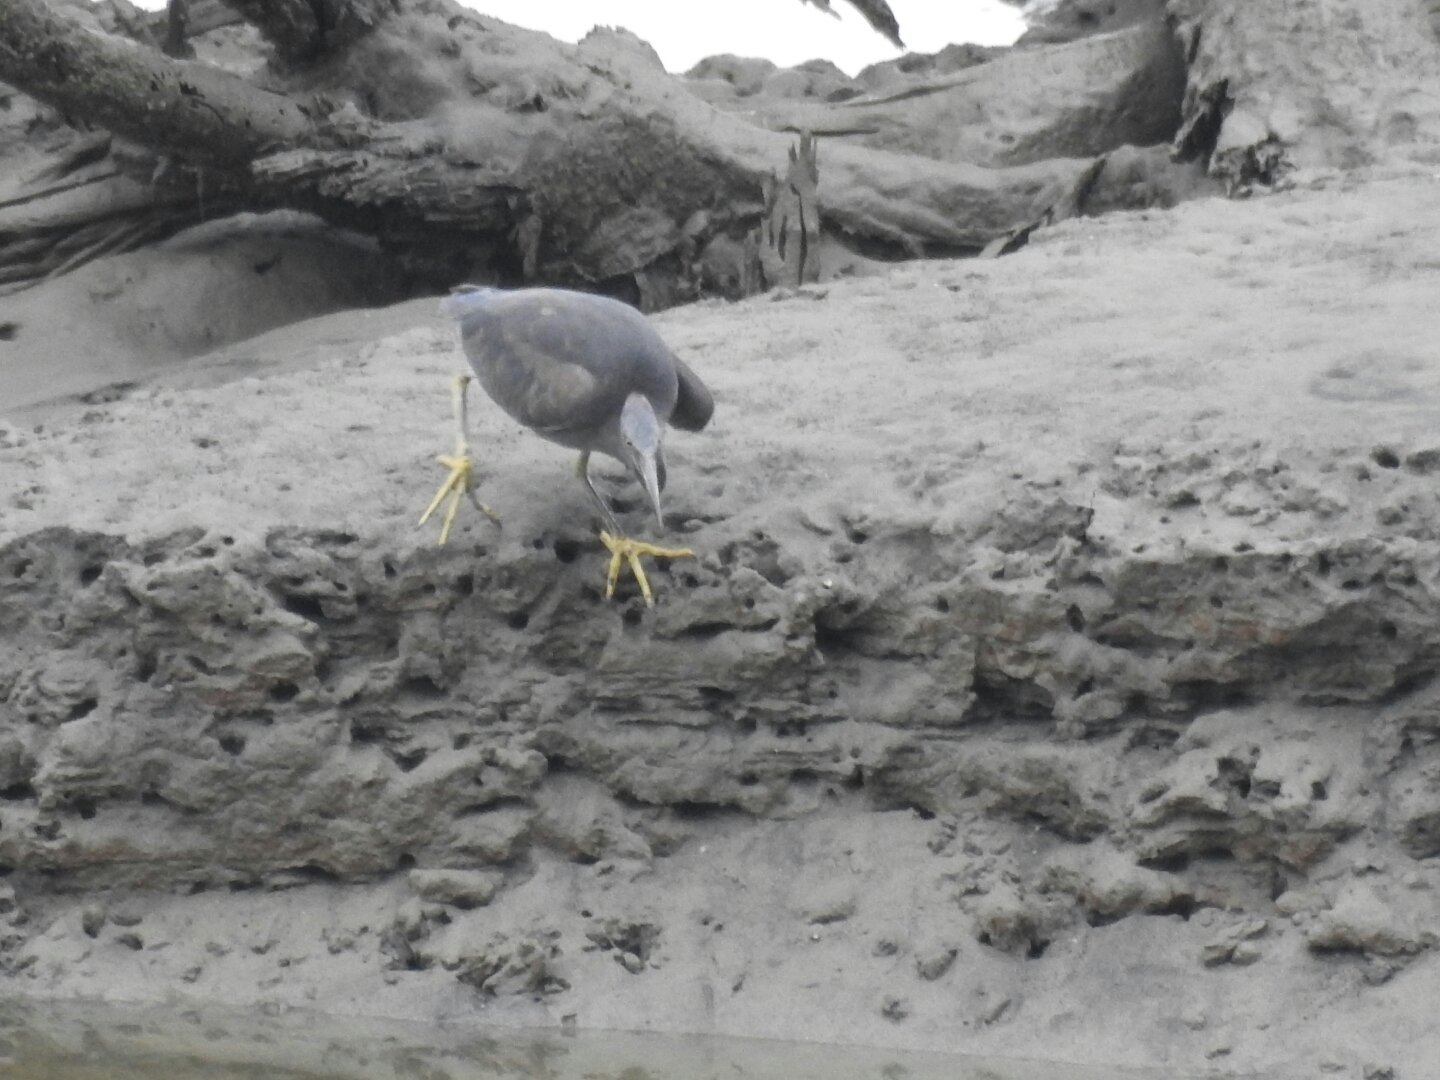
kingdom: Animalia
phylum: Chordata
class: Aves
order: Pelecaniformes
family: Ardeidae
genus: Egretta
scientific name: Egretta sacra
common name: Pacific reef heron
